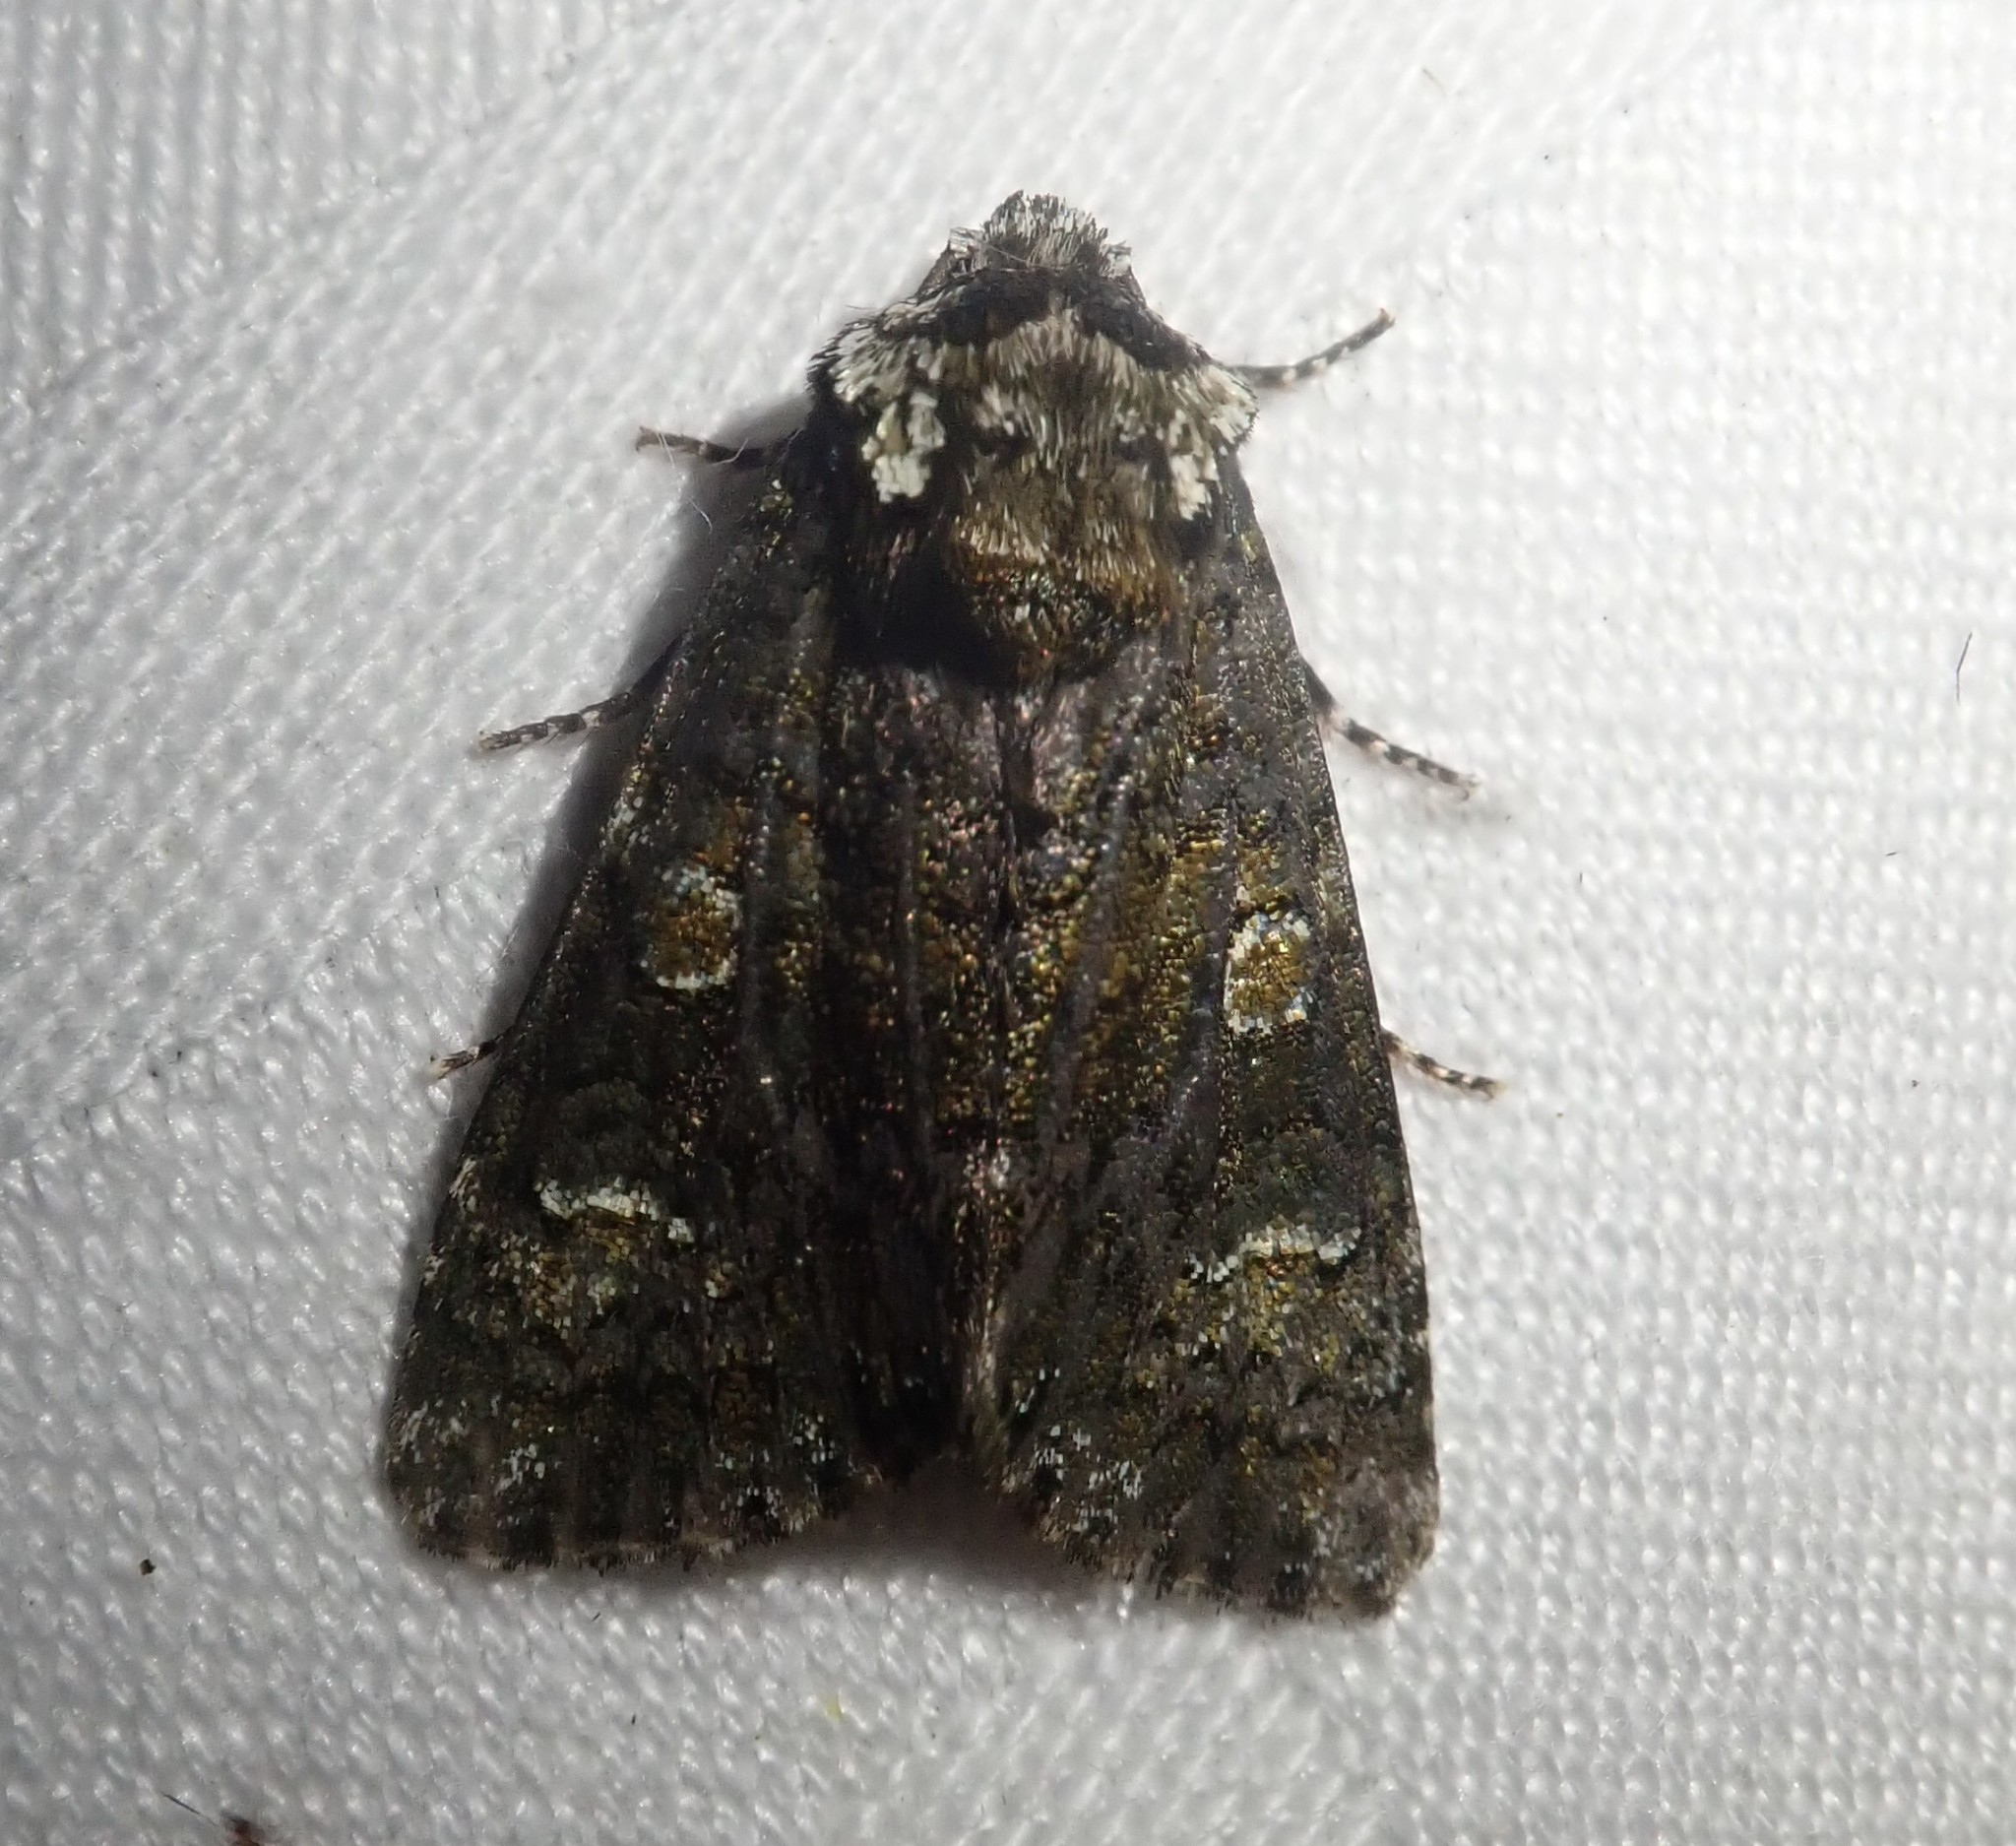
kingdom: Animalia
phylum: Arthropoda
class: Insecta
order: Lepidoptera
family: Noctuidae
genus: Melanchra
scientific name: Melanchra persicariae
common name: Dot moth
